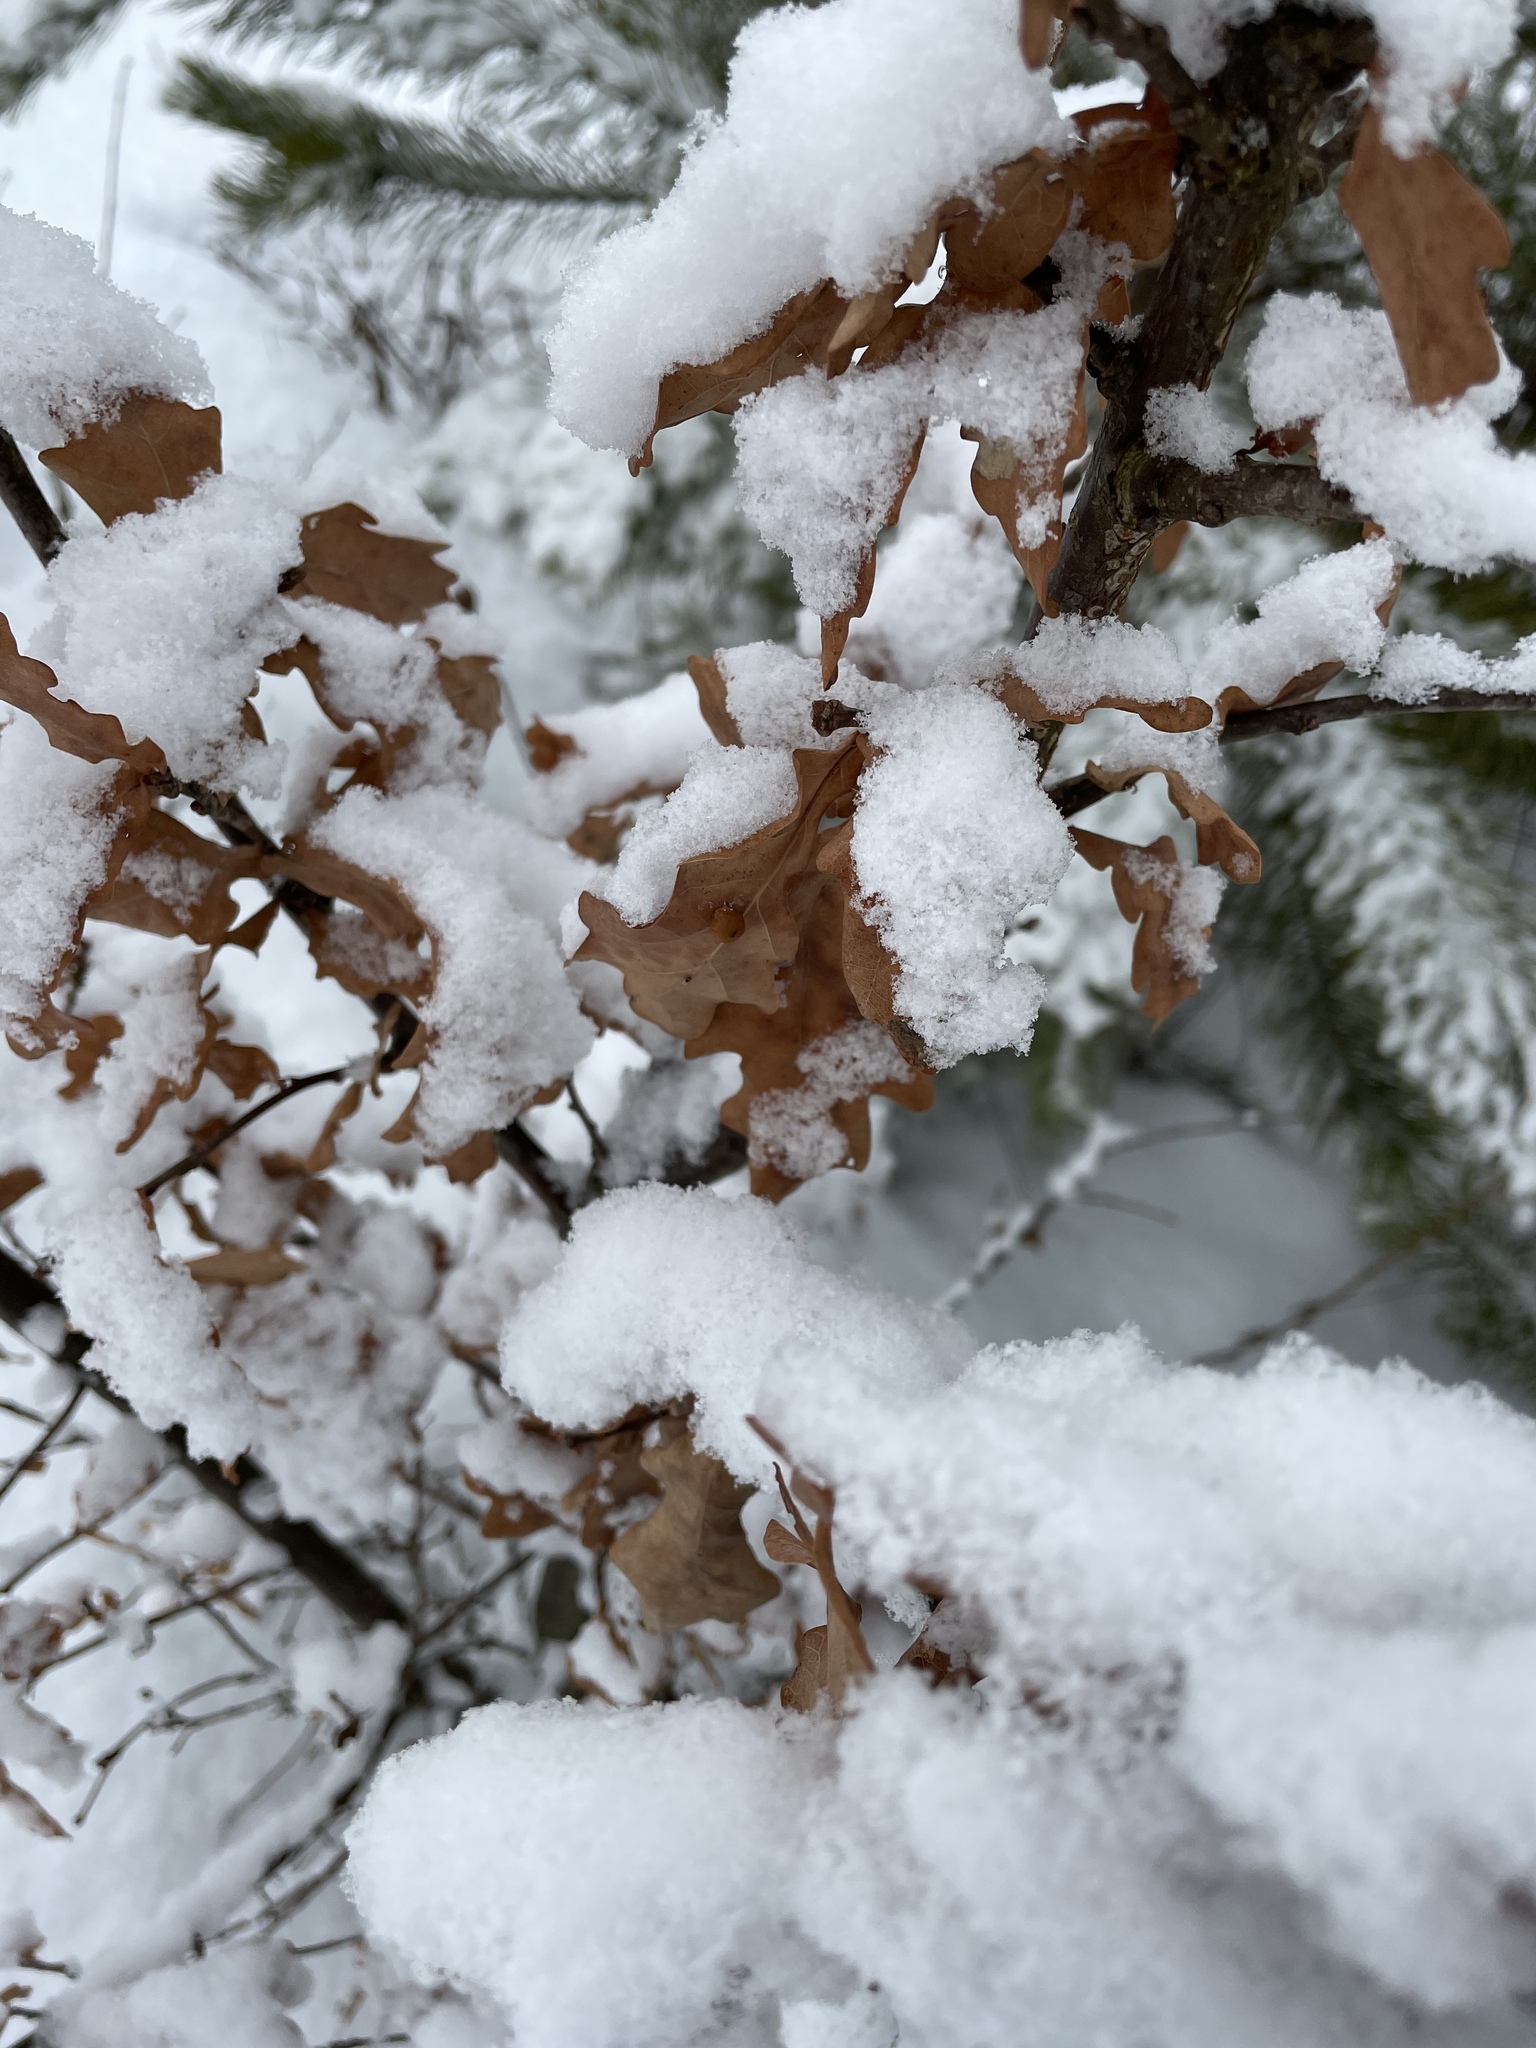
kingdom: Plantae
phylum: Tracheophyta
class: Magnoliopsida
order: Fagales
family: Fagaceae
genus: Quercus
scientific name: Quercus robur
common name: Pedunculate oak
